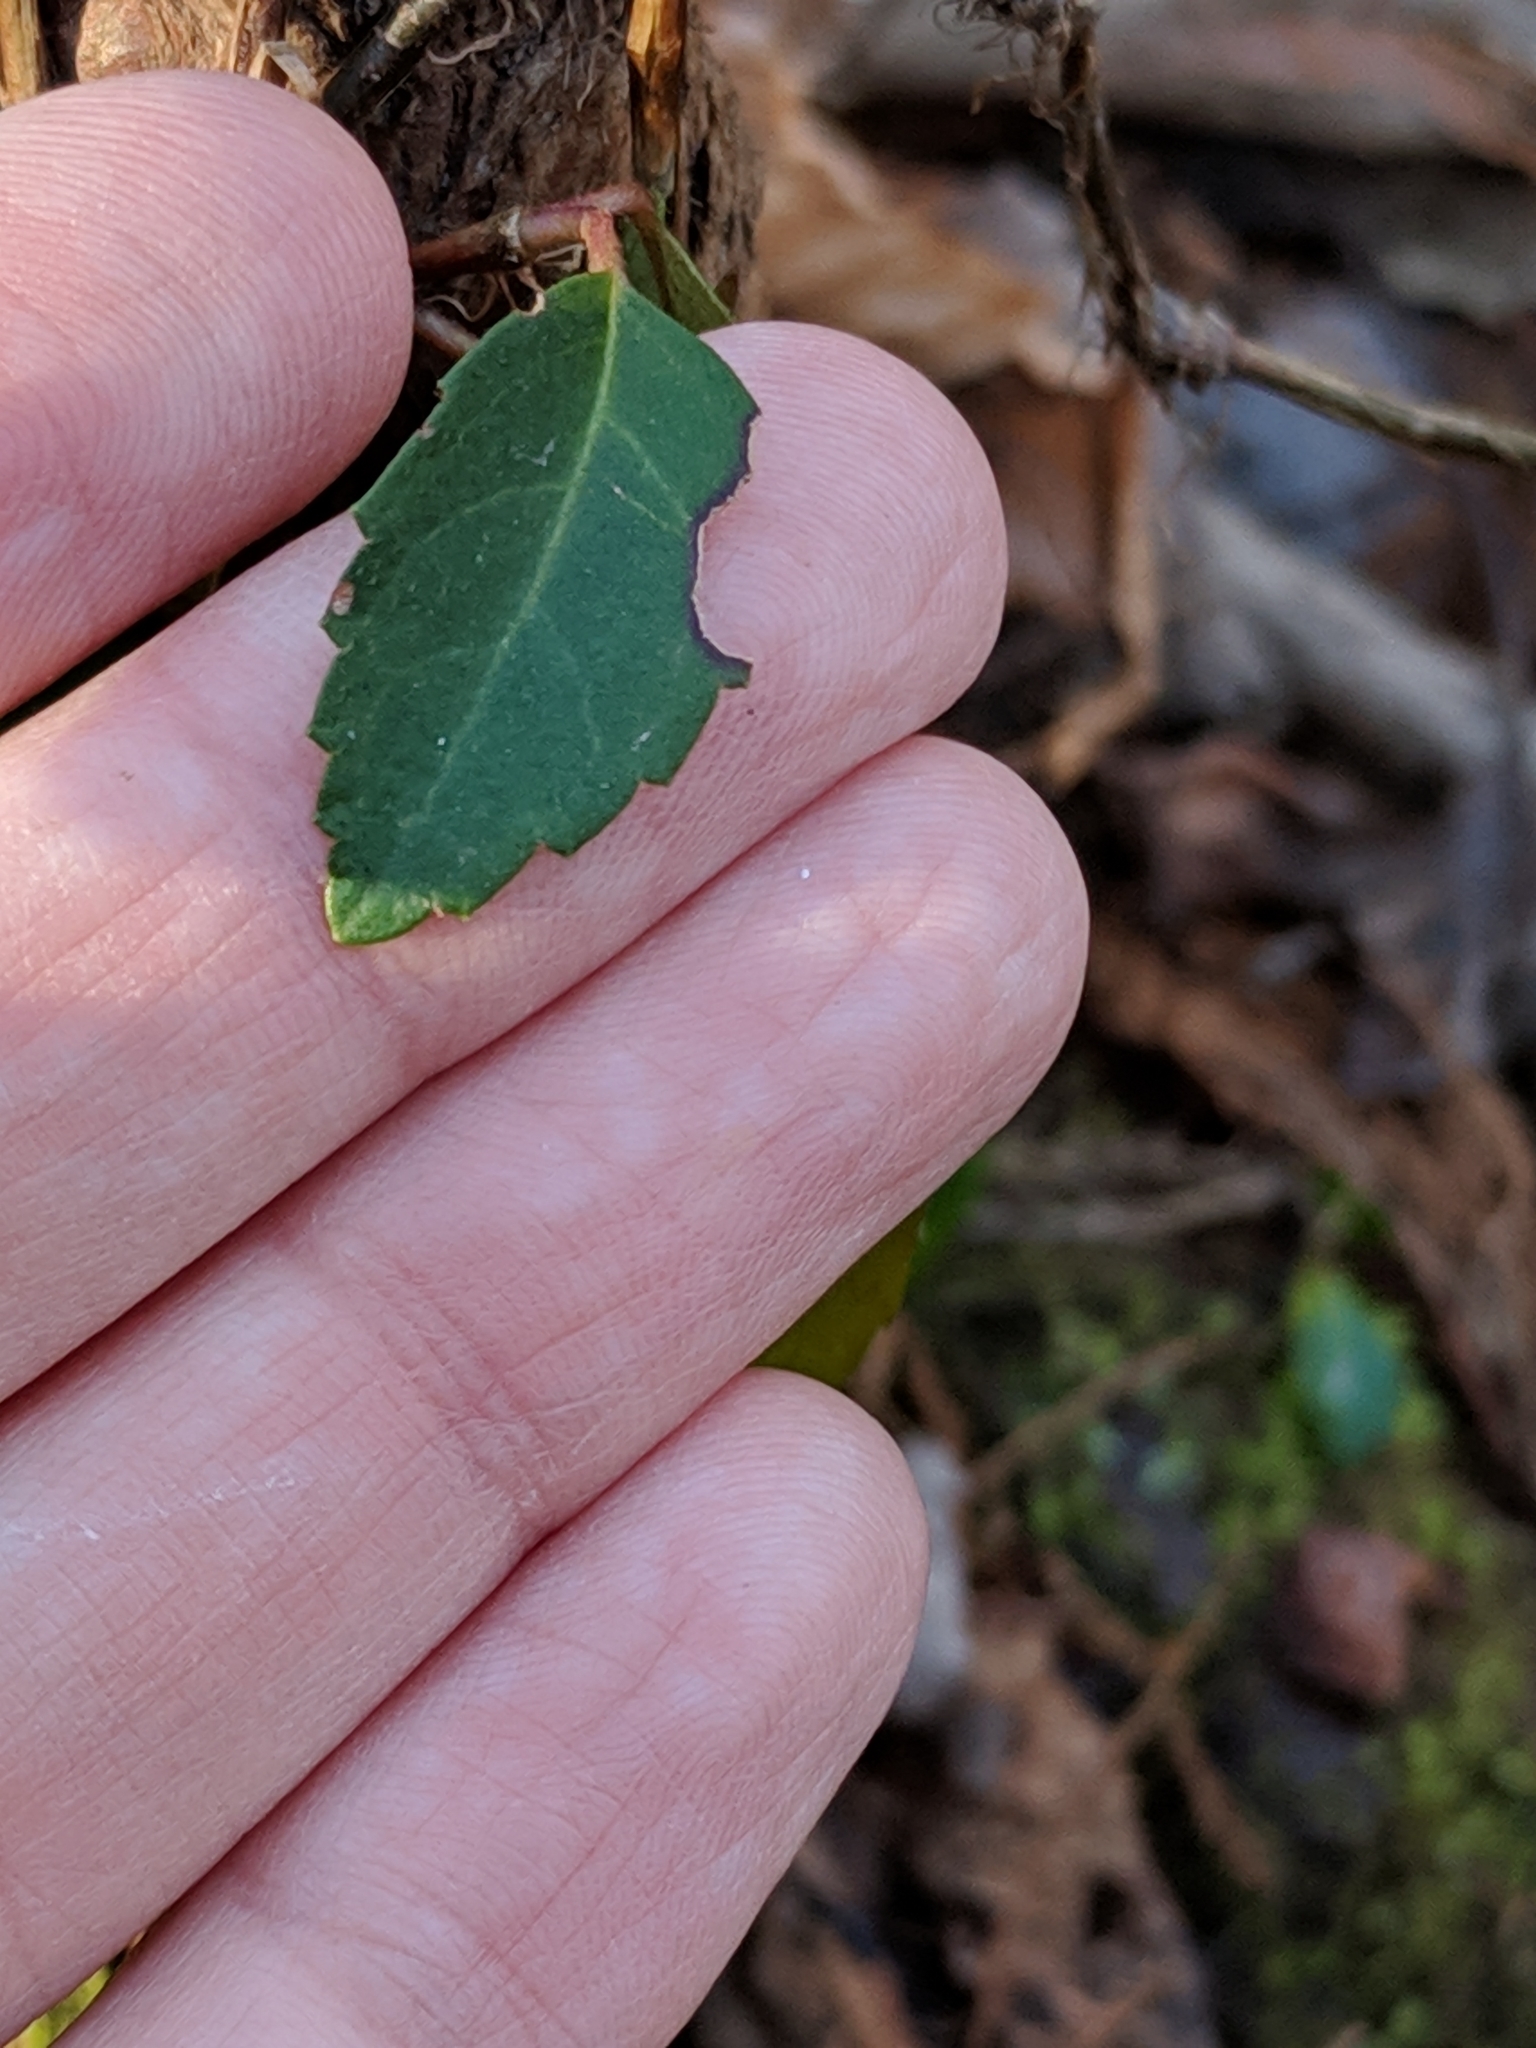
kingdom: Plantae
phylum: Tracheophyta
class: Magnoliopsida
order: Cornales
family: Hydrangeaceae
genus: Hydrangea
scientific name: Hydrangea barbara
